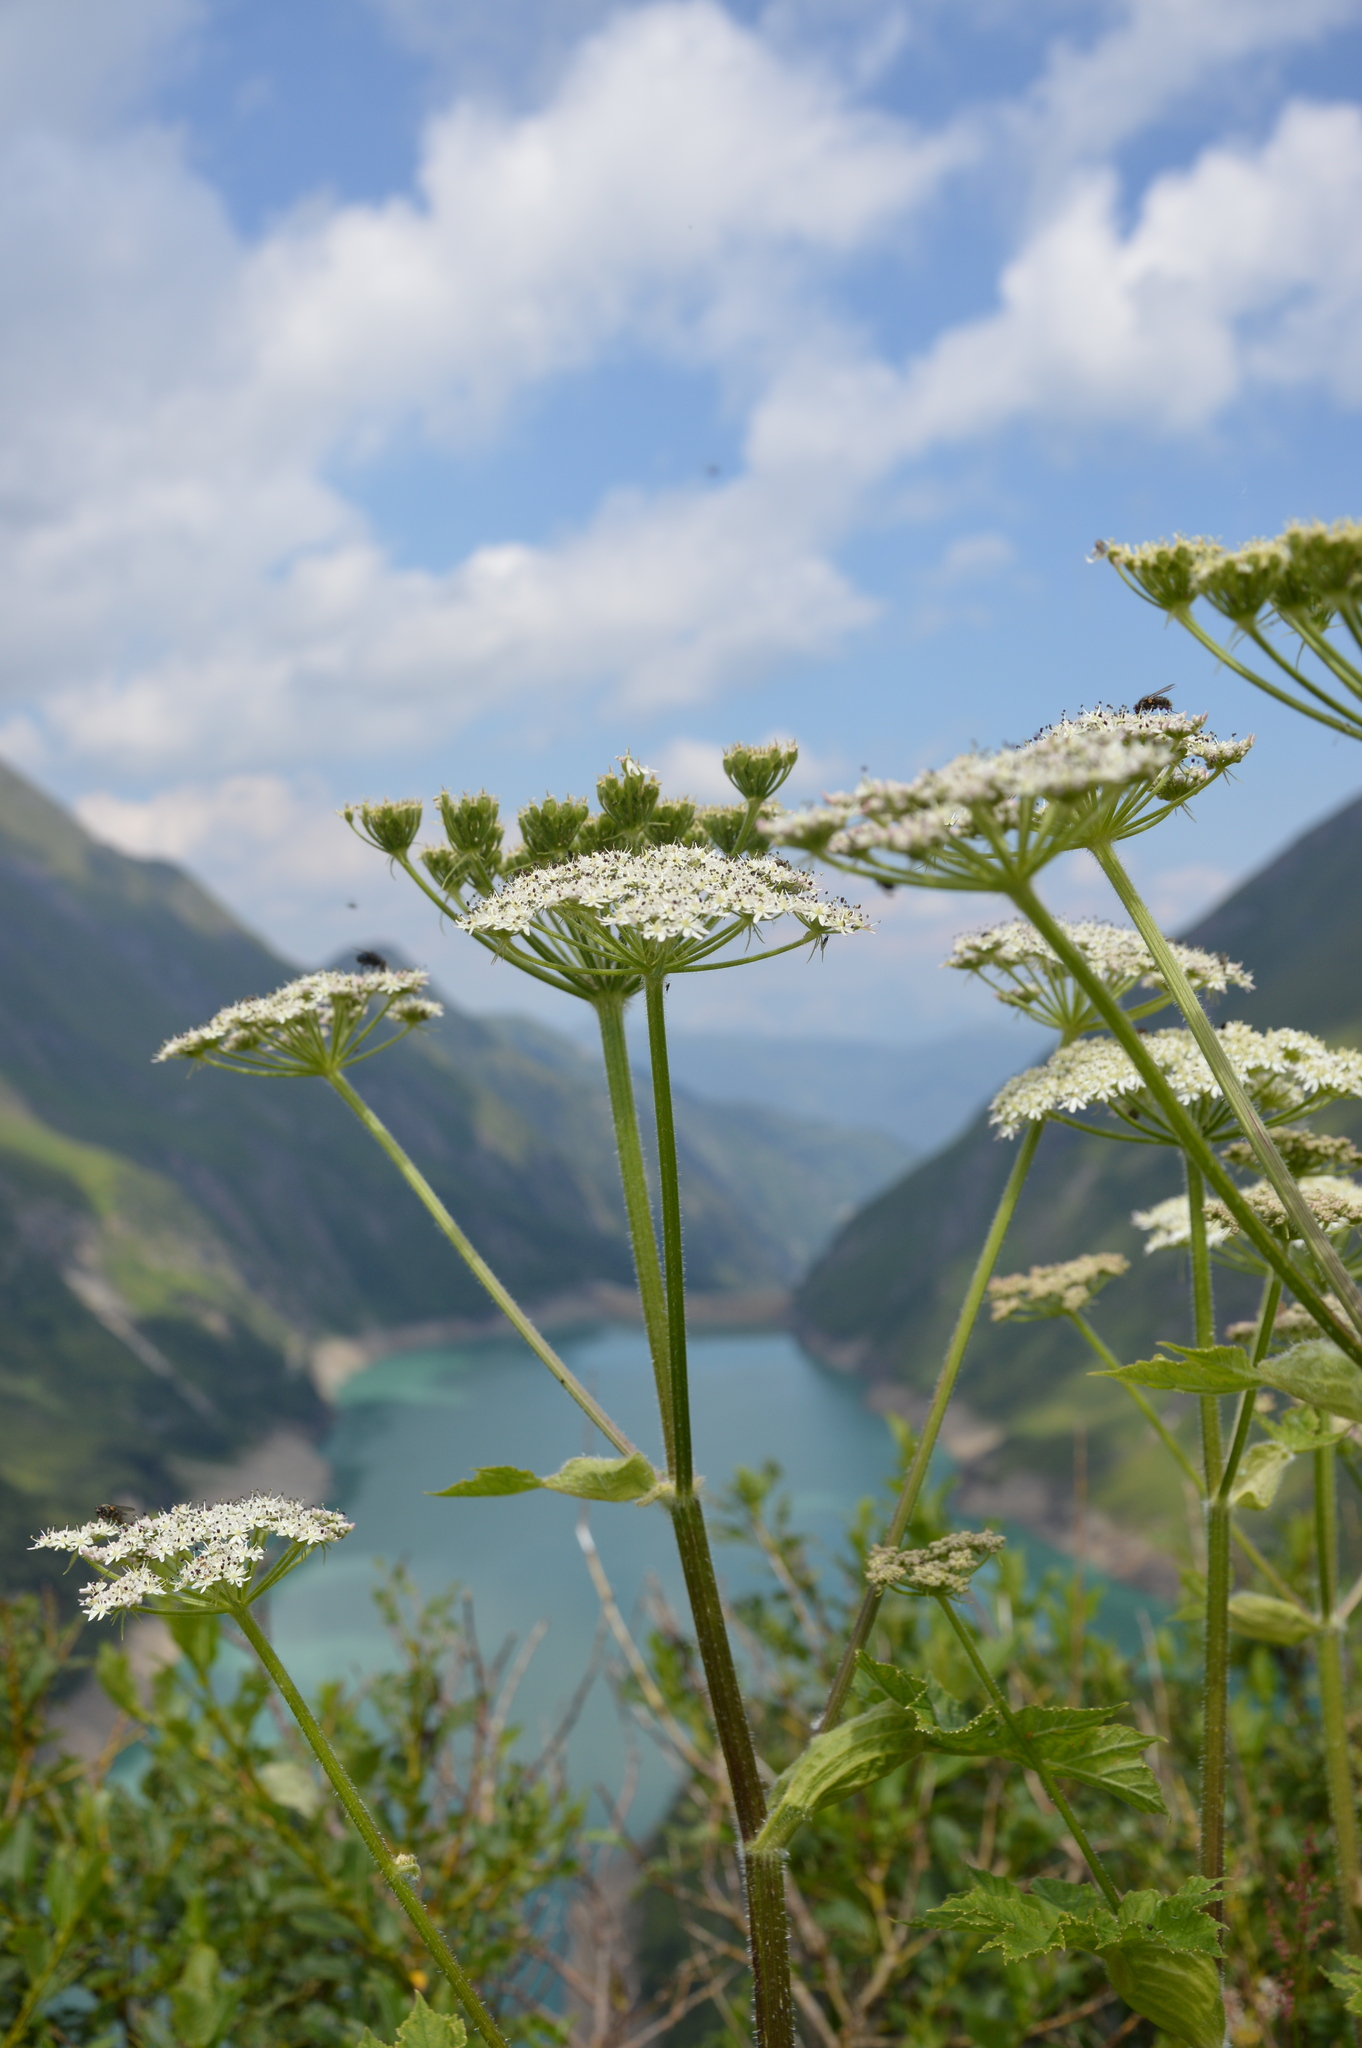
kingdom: Plantae
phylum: Tracheophyta
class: Magnoliopsida
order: Apiales
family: Apiaceae
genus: Heracleum
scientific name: Heracleum sphondylium
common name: Hogweed
